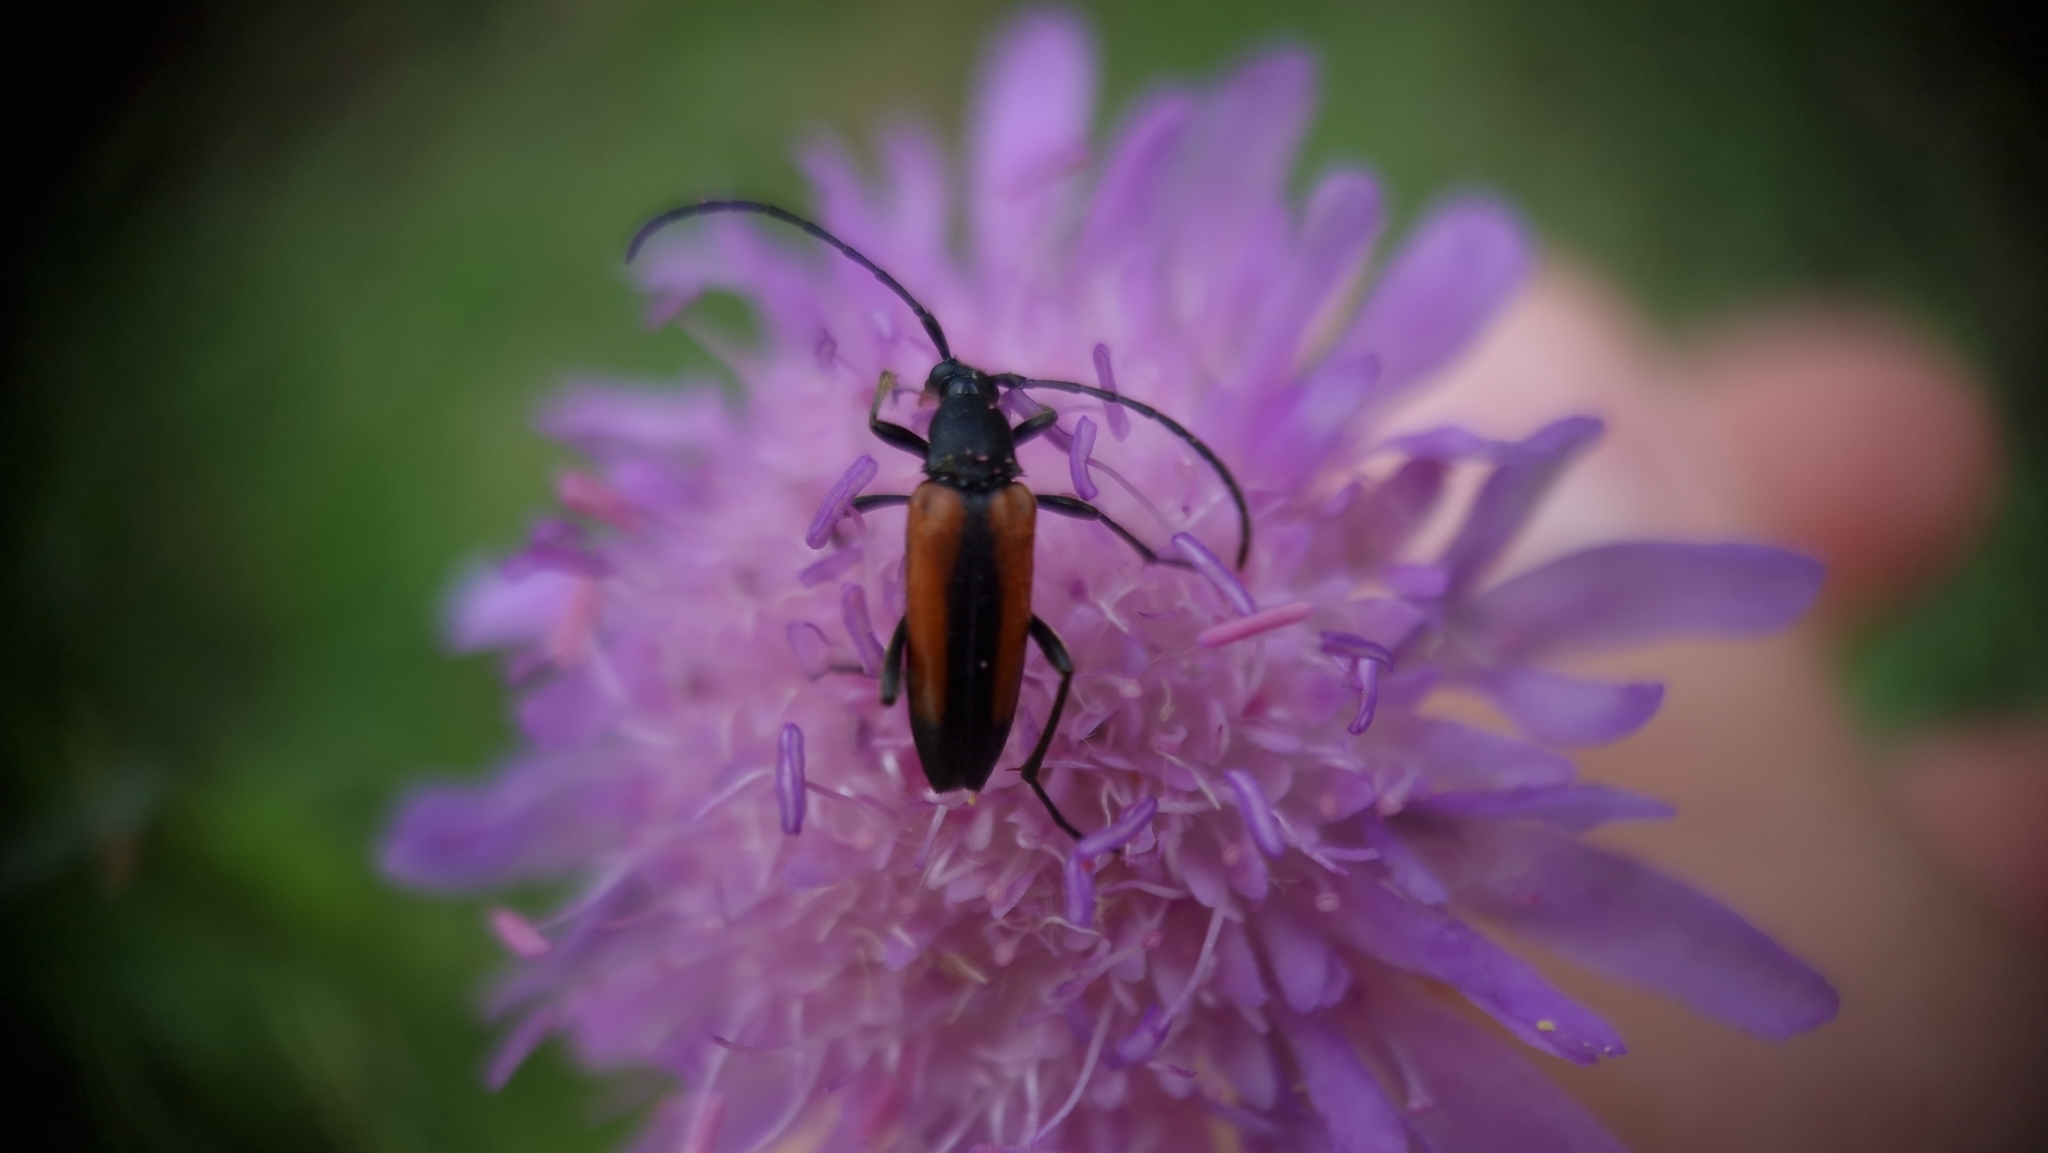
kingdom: Animalia
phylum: Arthropoda
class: Insecta
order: Coleoptera
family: Cerambycidae
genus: Stenurella
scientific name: Stenurella melanura
